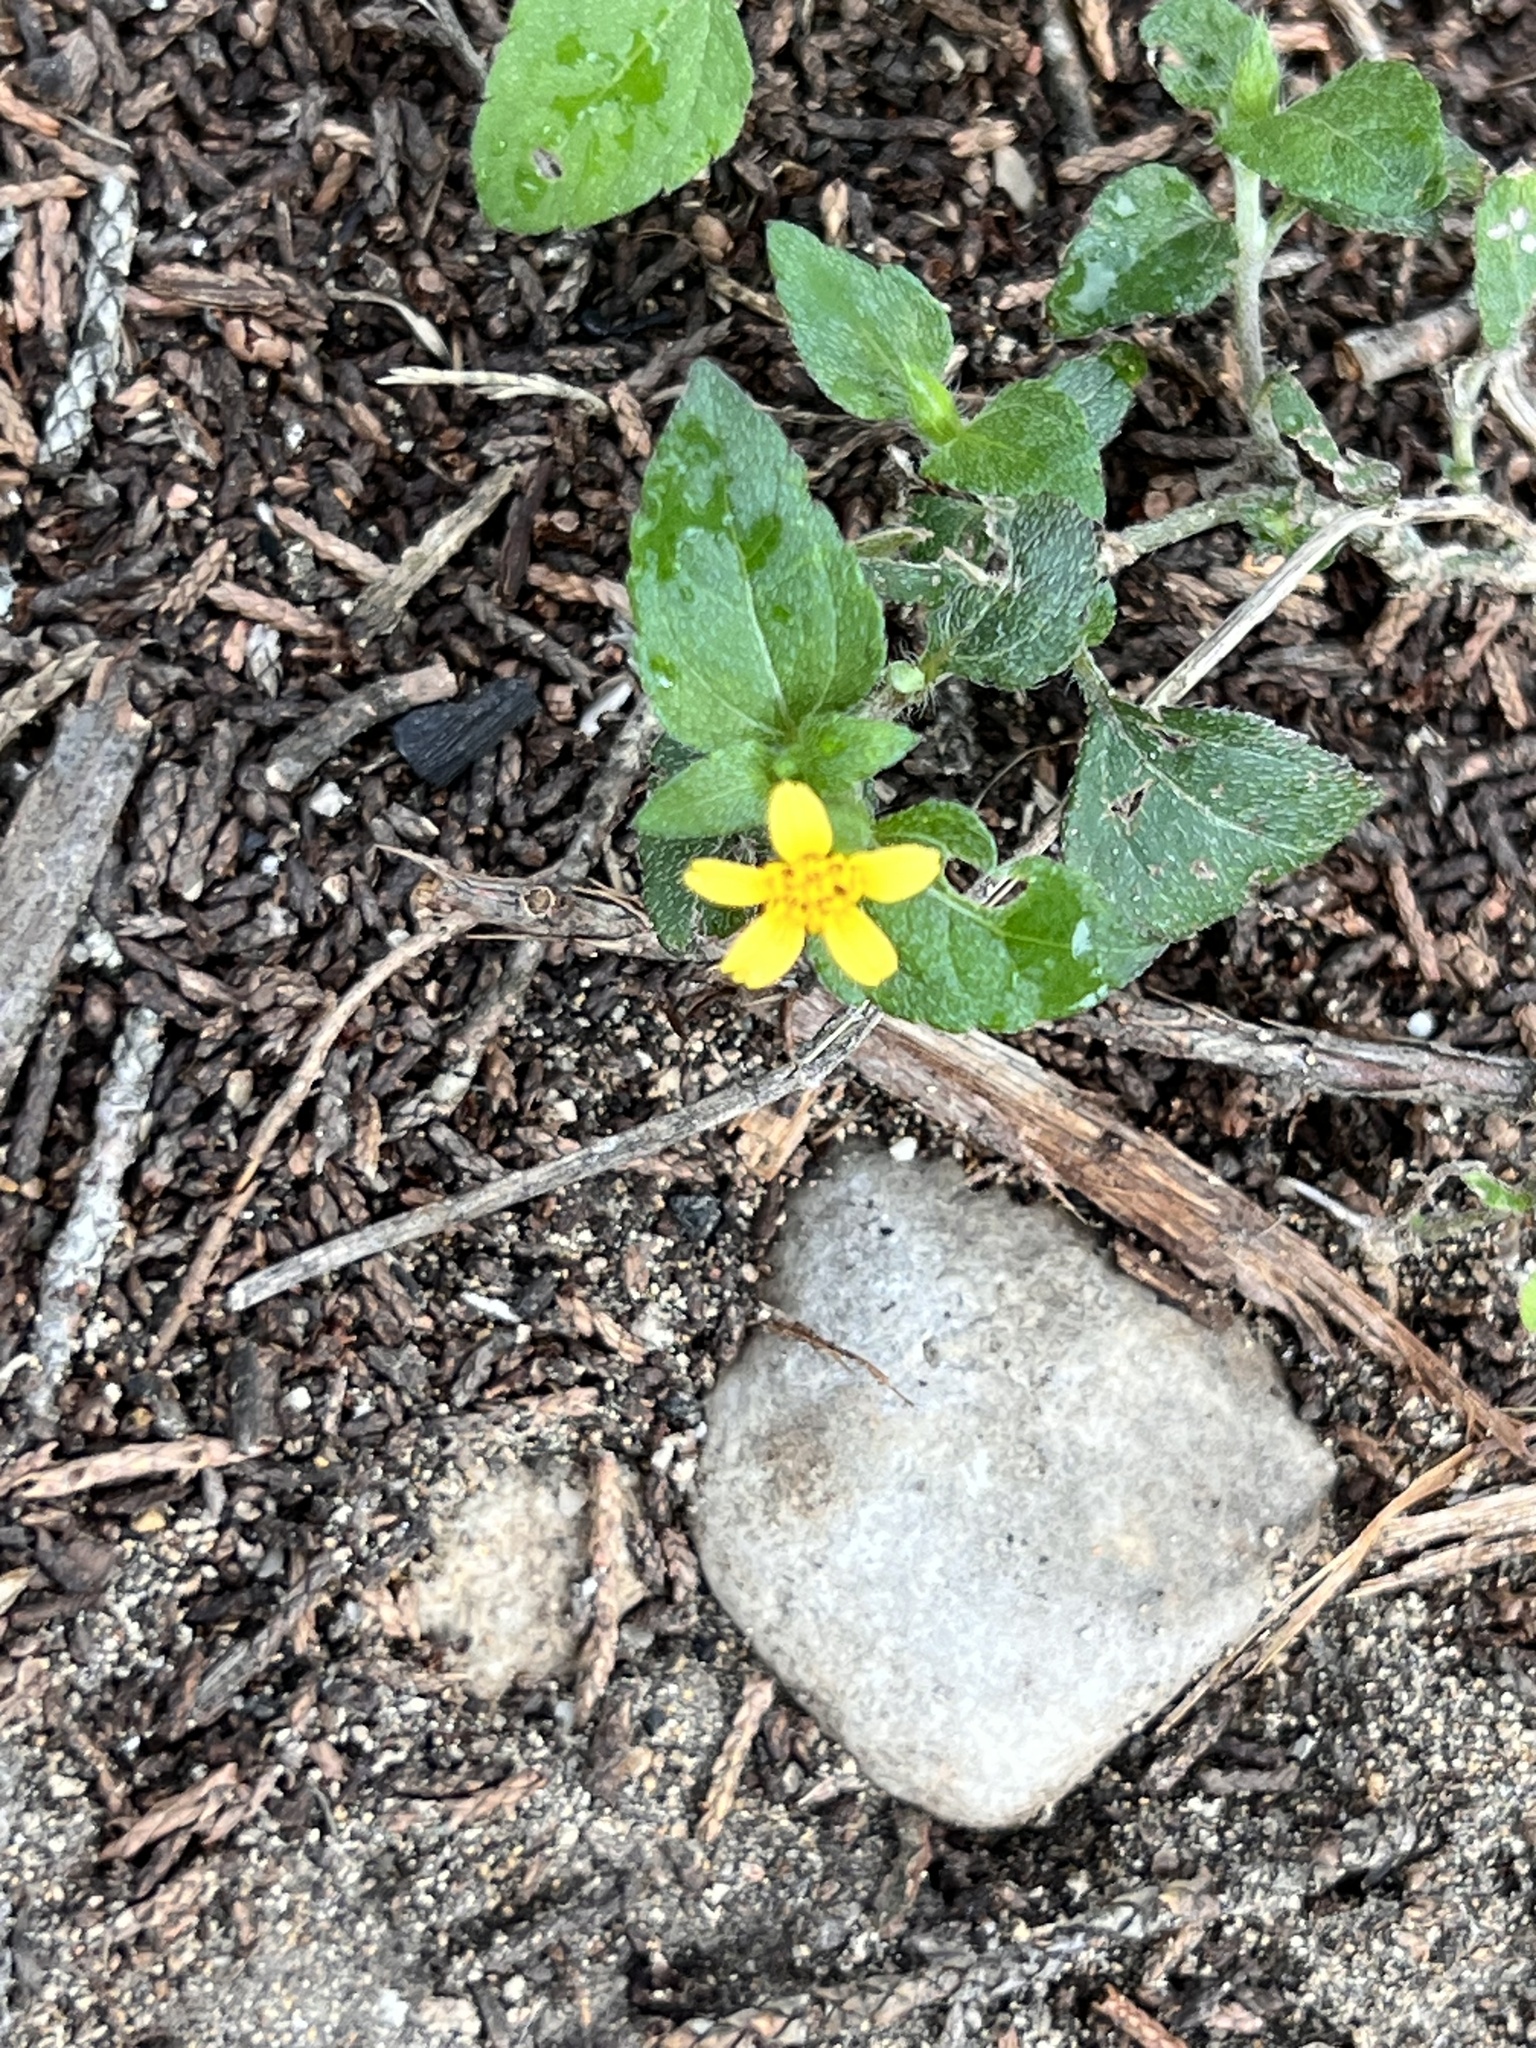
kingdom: Plantae
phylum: Tracheophyta
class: Magnoliopsida
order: Asterales
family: Asteraceae
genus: Calyptocarpus
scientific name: Calyptocarpus vialis
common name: Straggler daisy
